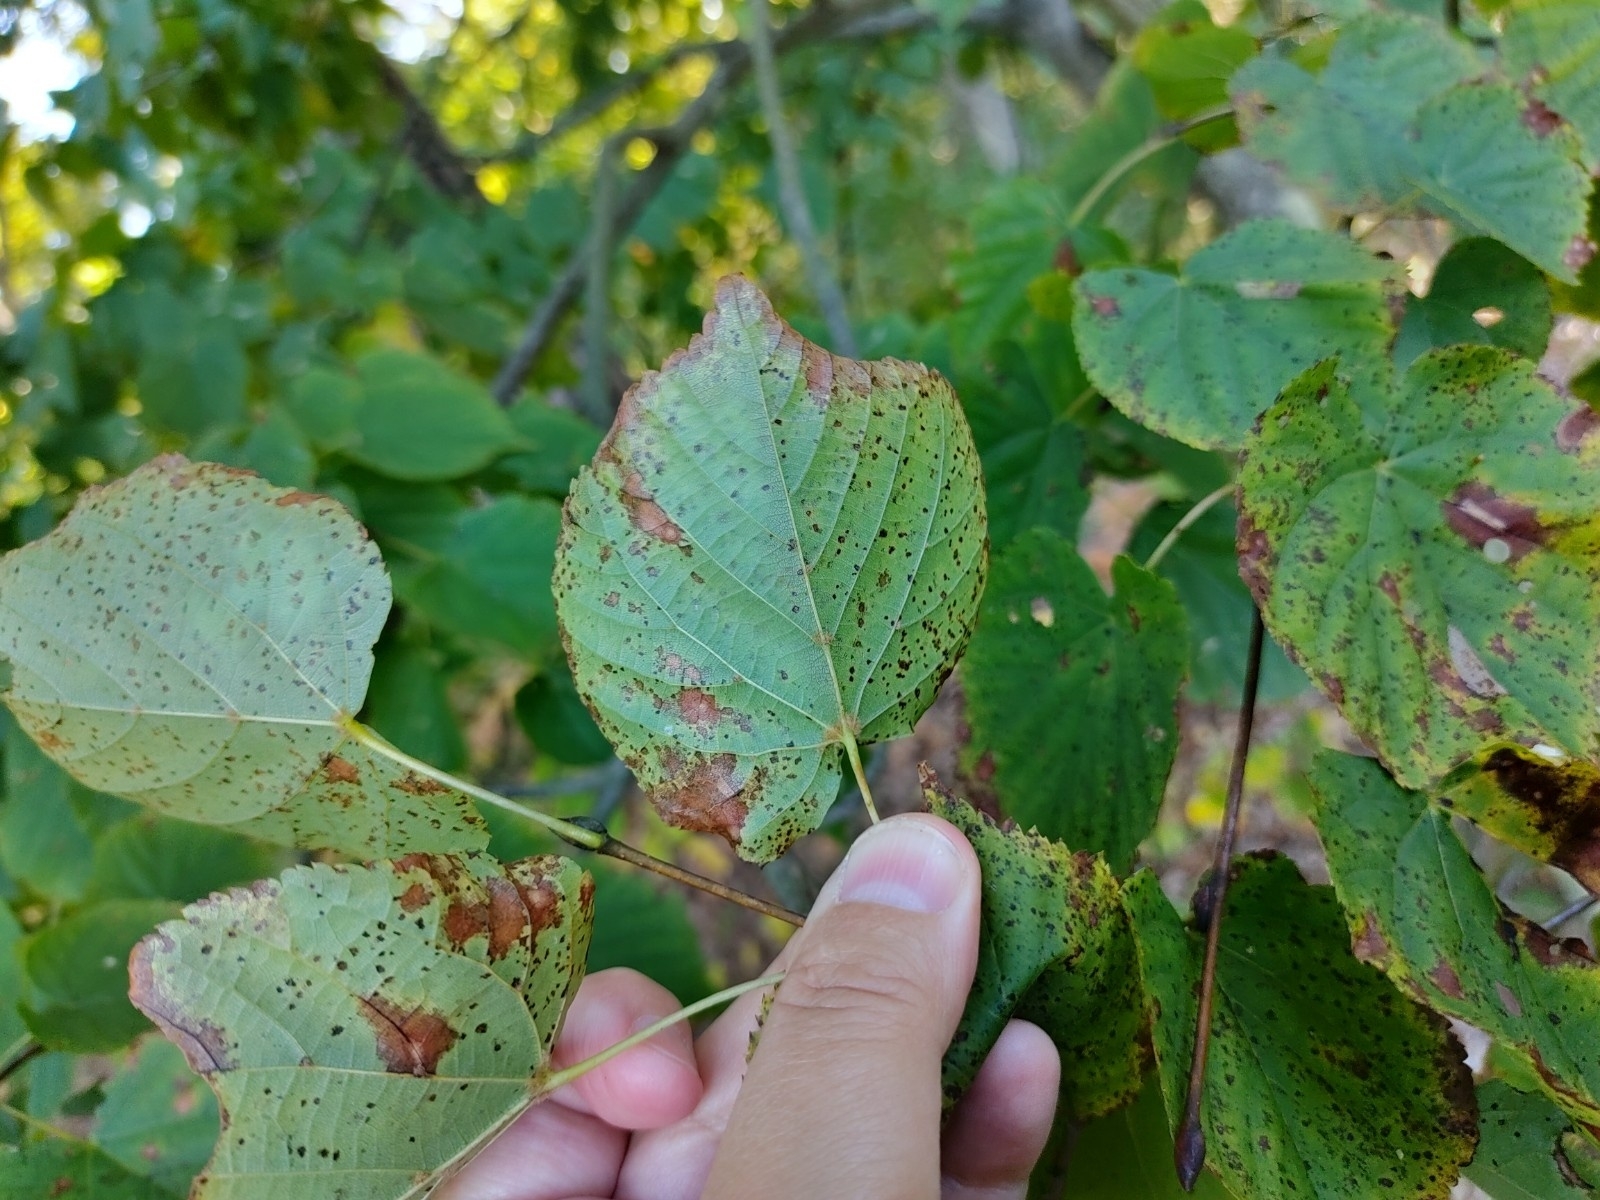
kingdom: Plantae
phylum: Tracheophyta
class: Magnoliopsida
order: Malvales
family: Malvaceae
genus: Tilia
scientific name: Tilia cordata
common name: Small-leaved lime
